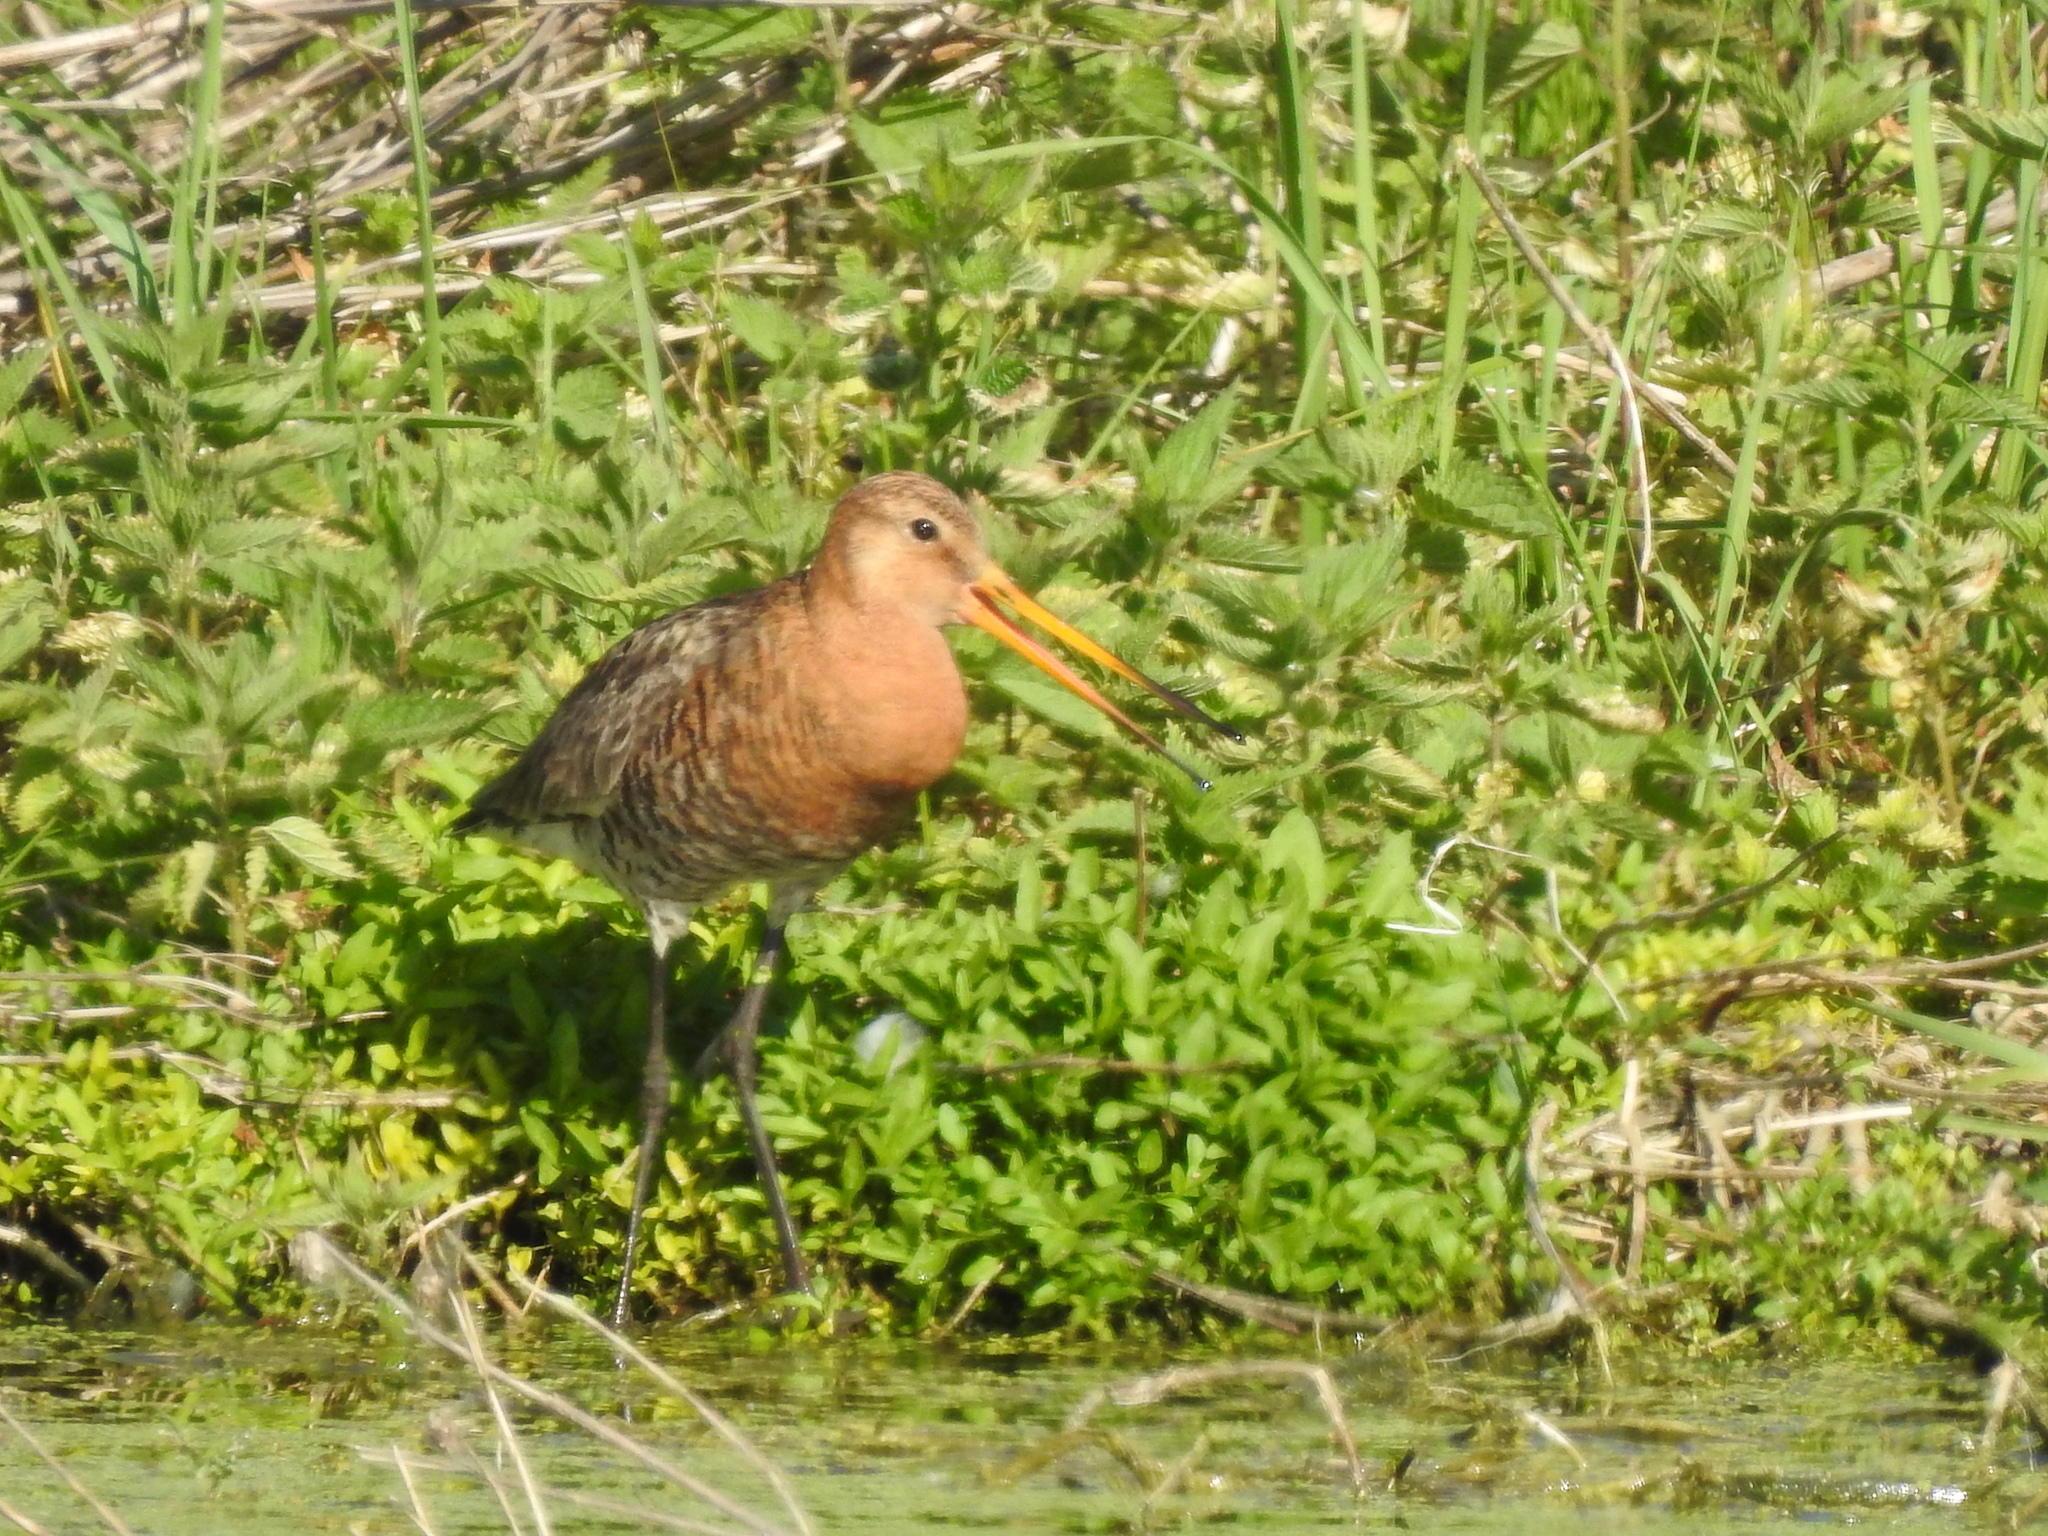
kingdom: Animalia
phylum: Chordata
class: Aves
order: Charadriiformes
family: Scolopacidae
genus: Limosa
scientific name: Limosa limosa
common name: Black-tailed godwit
